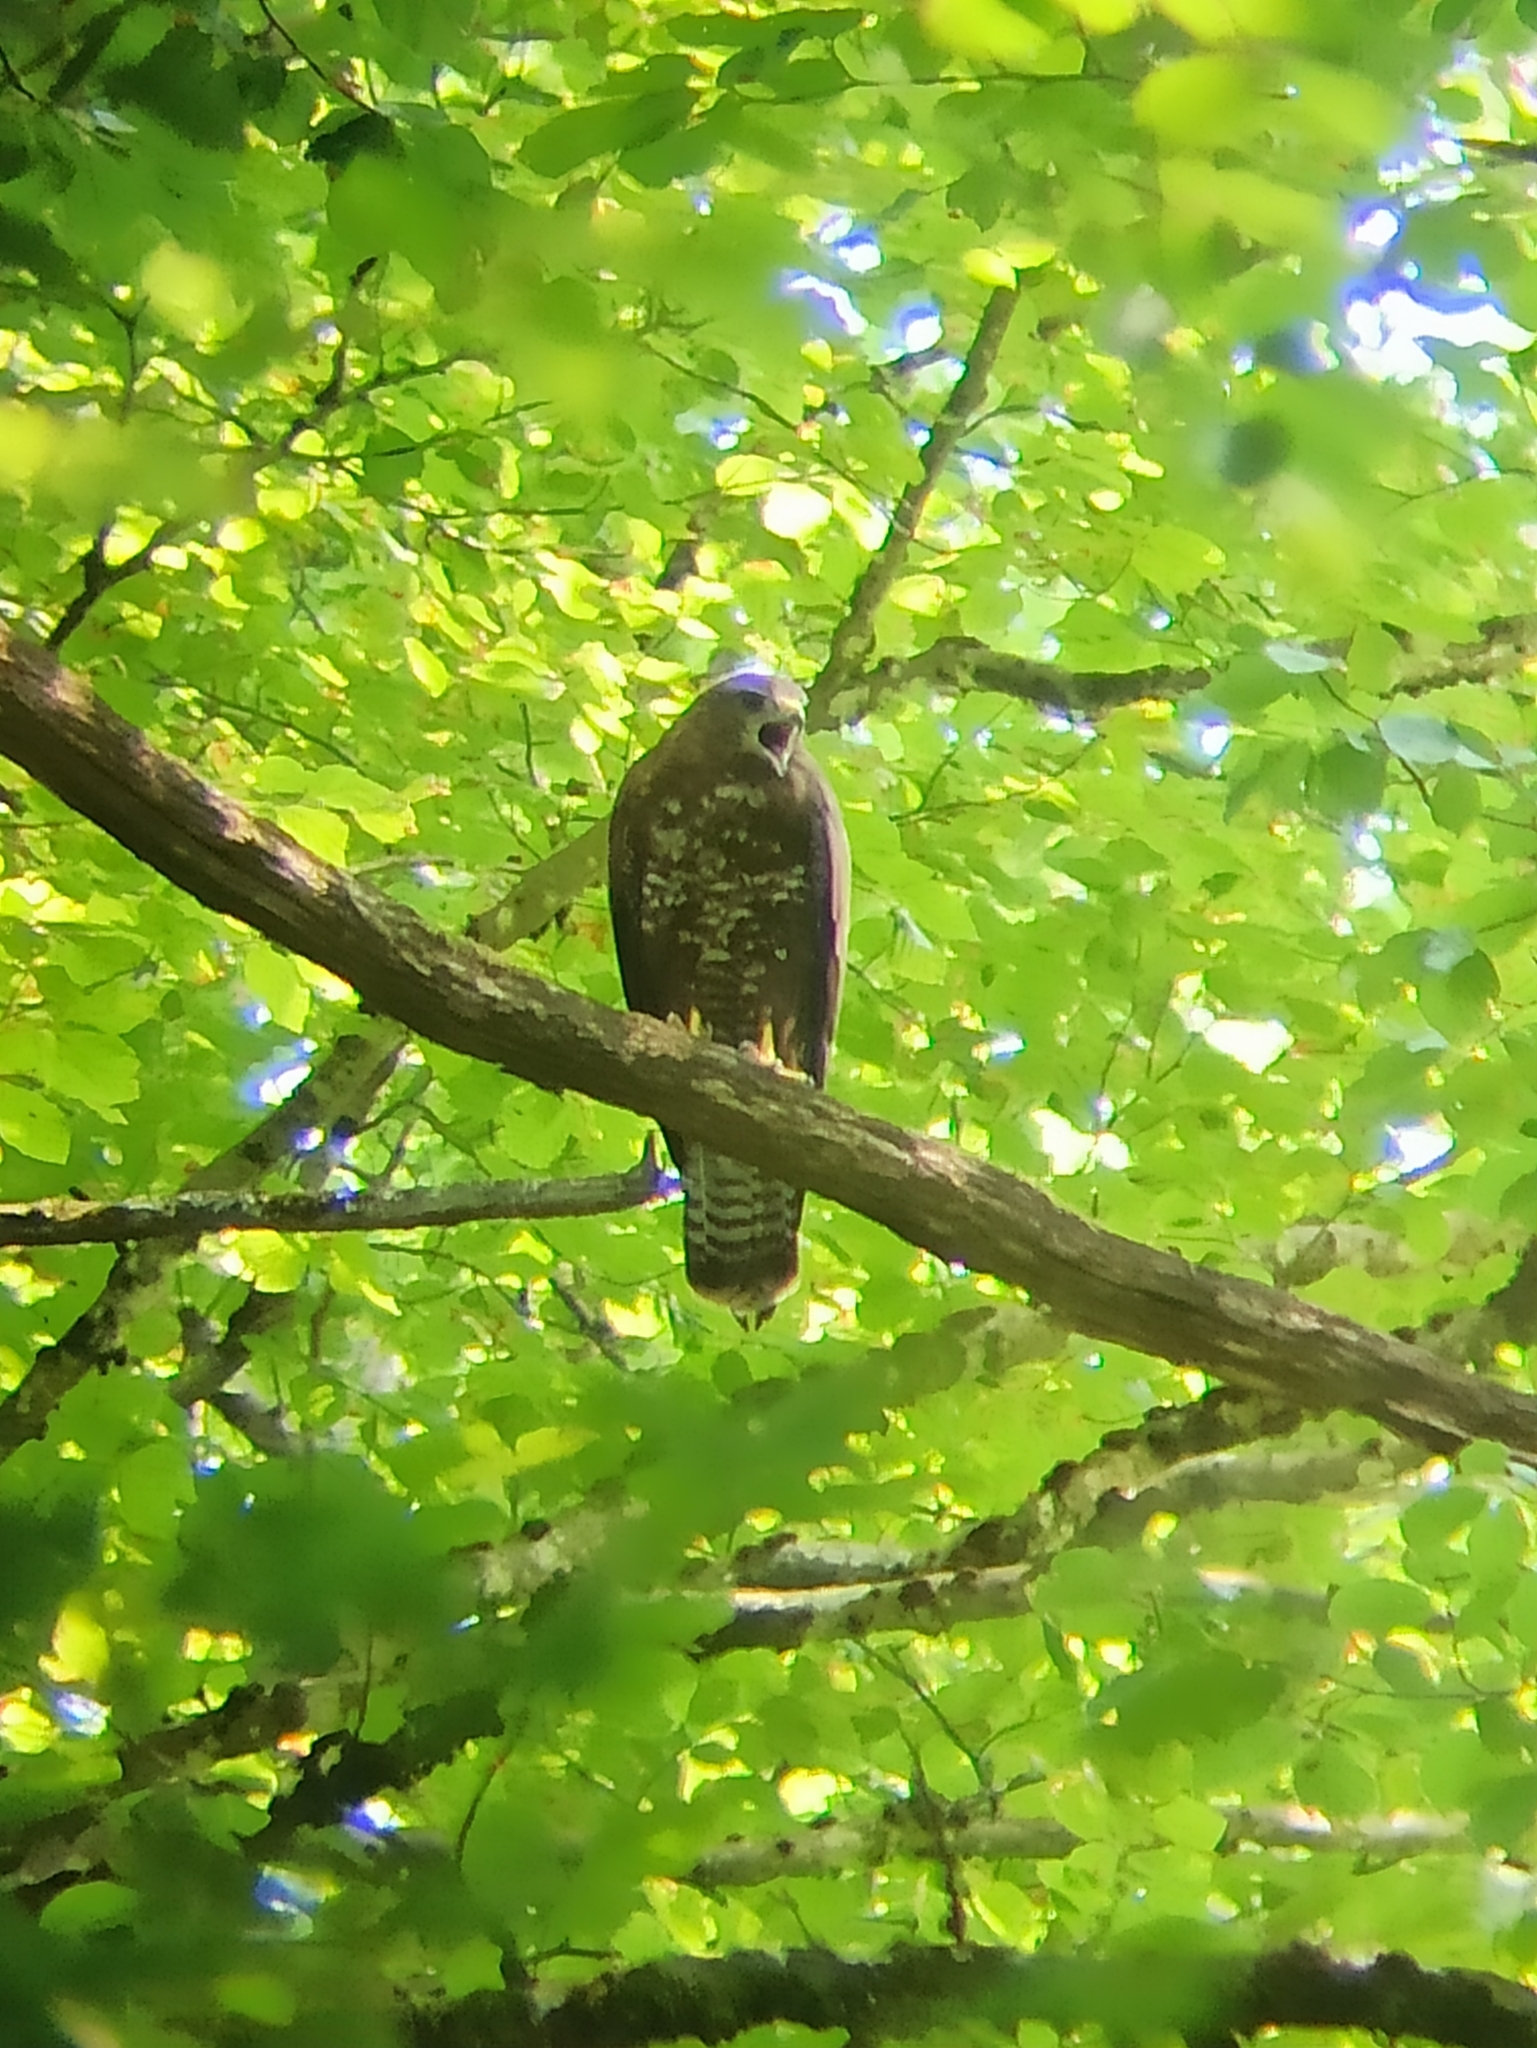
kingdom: Animalia
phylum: Chordata
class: Aves
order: Accipitriformes
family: Accipitridae
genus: Buteo
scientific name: Buteo buteo
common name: Common buzzard
